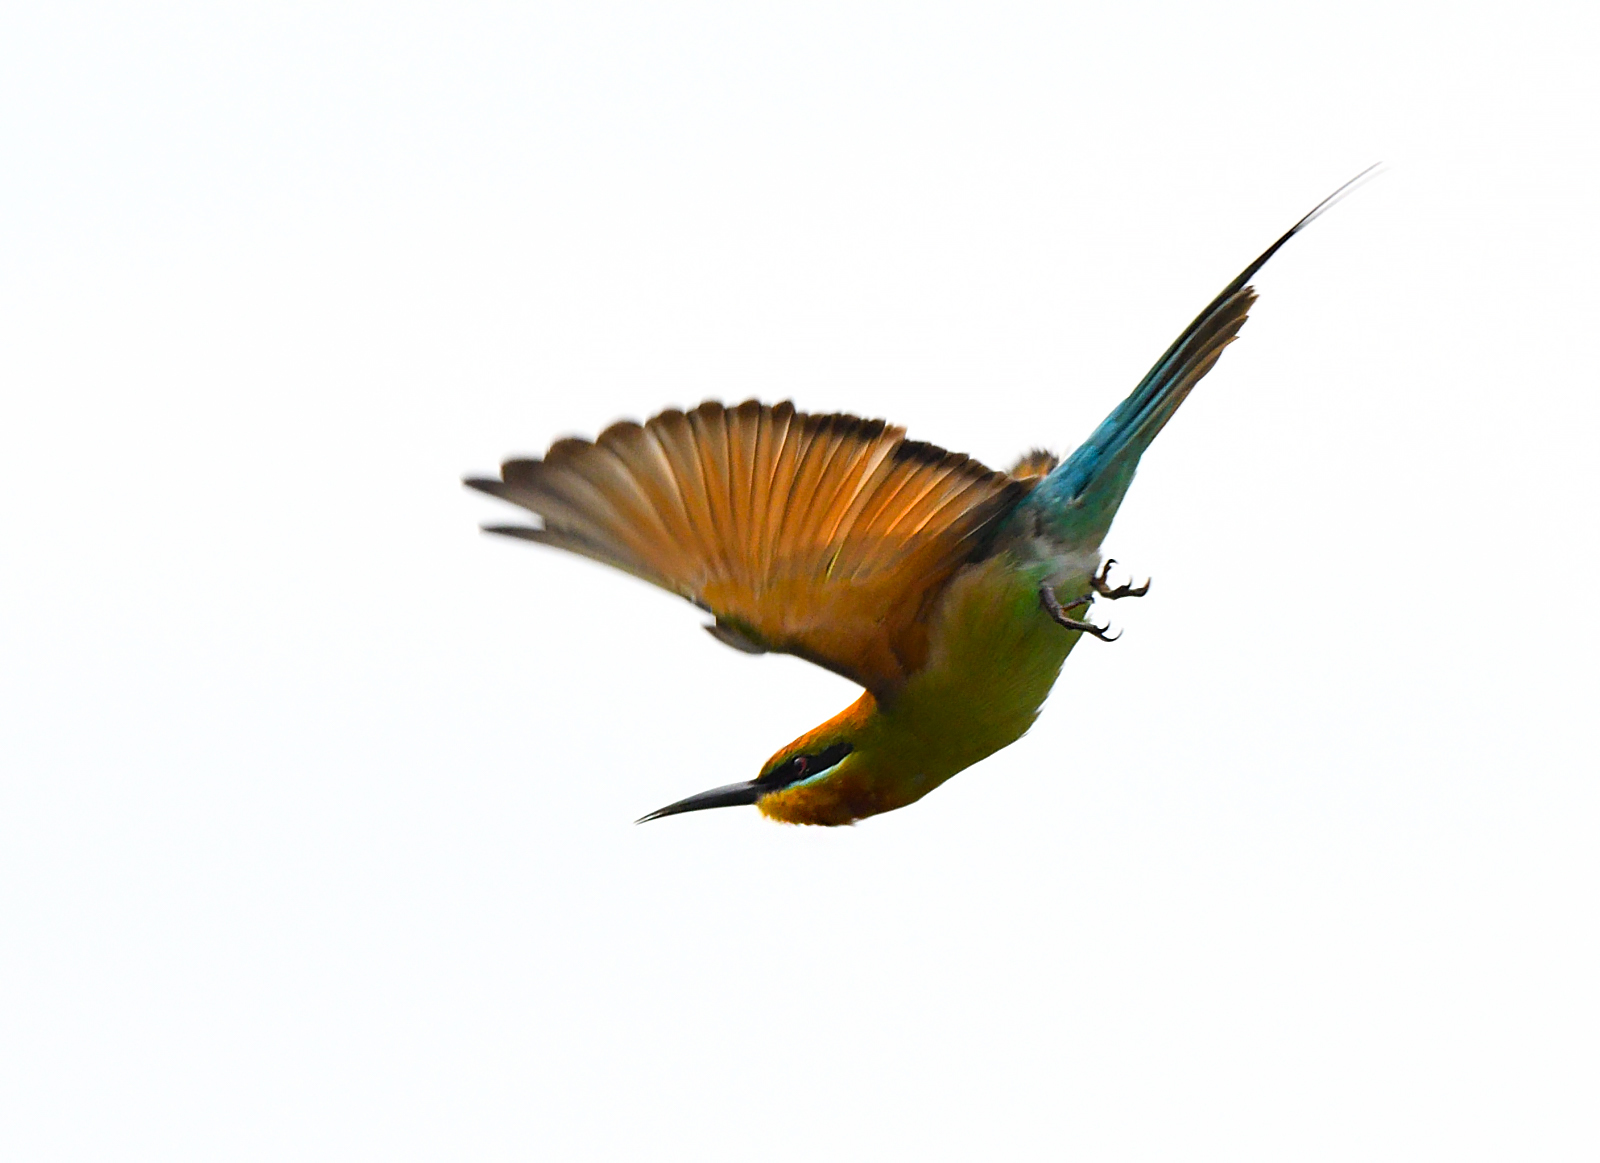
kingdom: Animalia
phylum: Chordata
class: Aves
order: Coraciiformes
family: Meropidae
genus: Merops
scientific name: Merops philippinus
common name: Blue-tailed bee-eater
